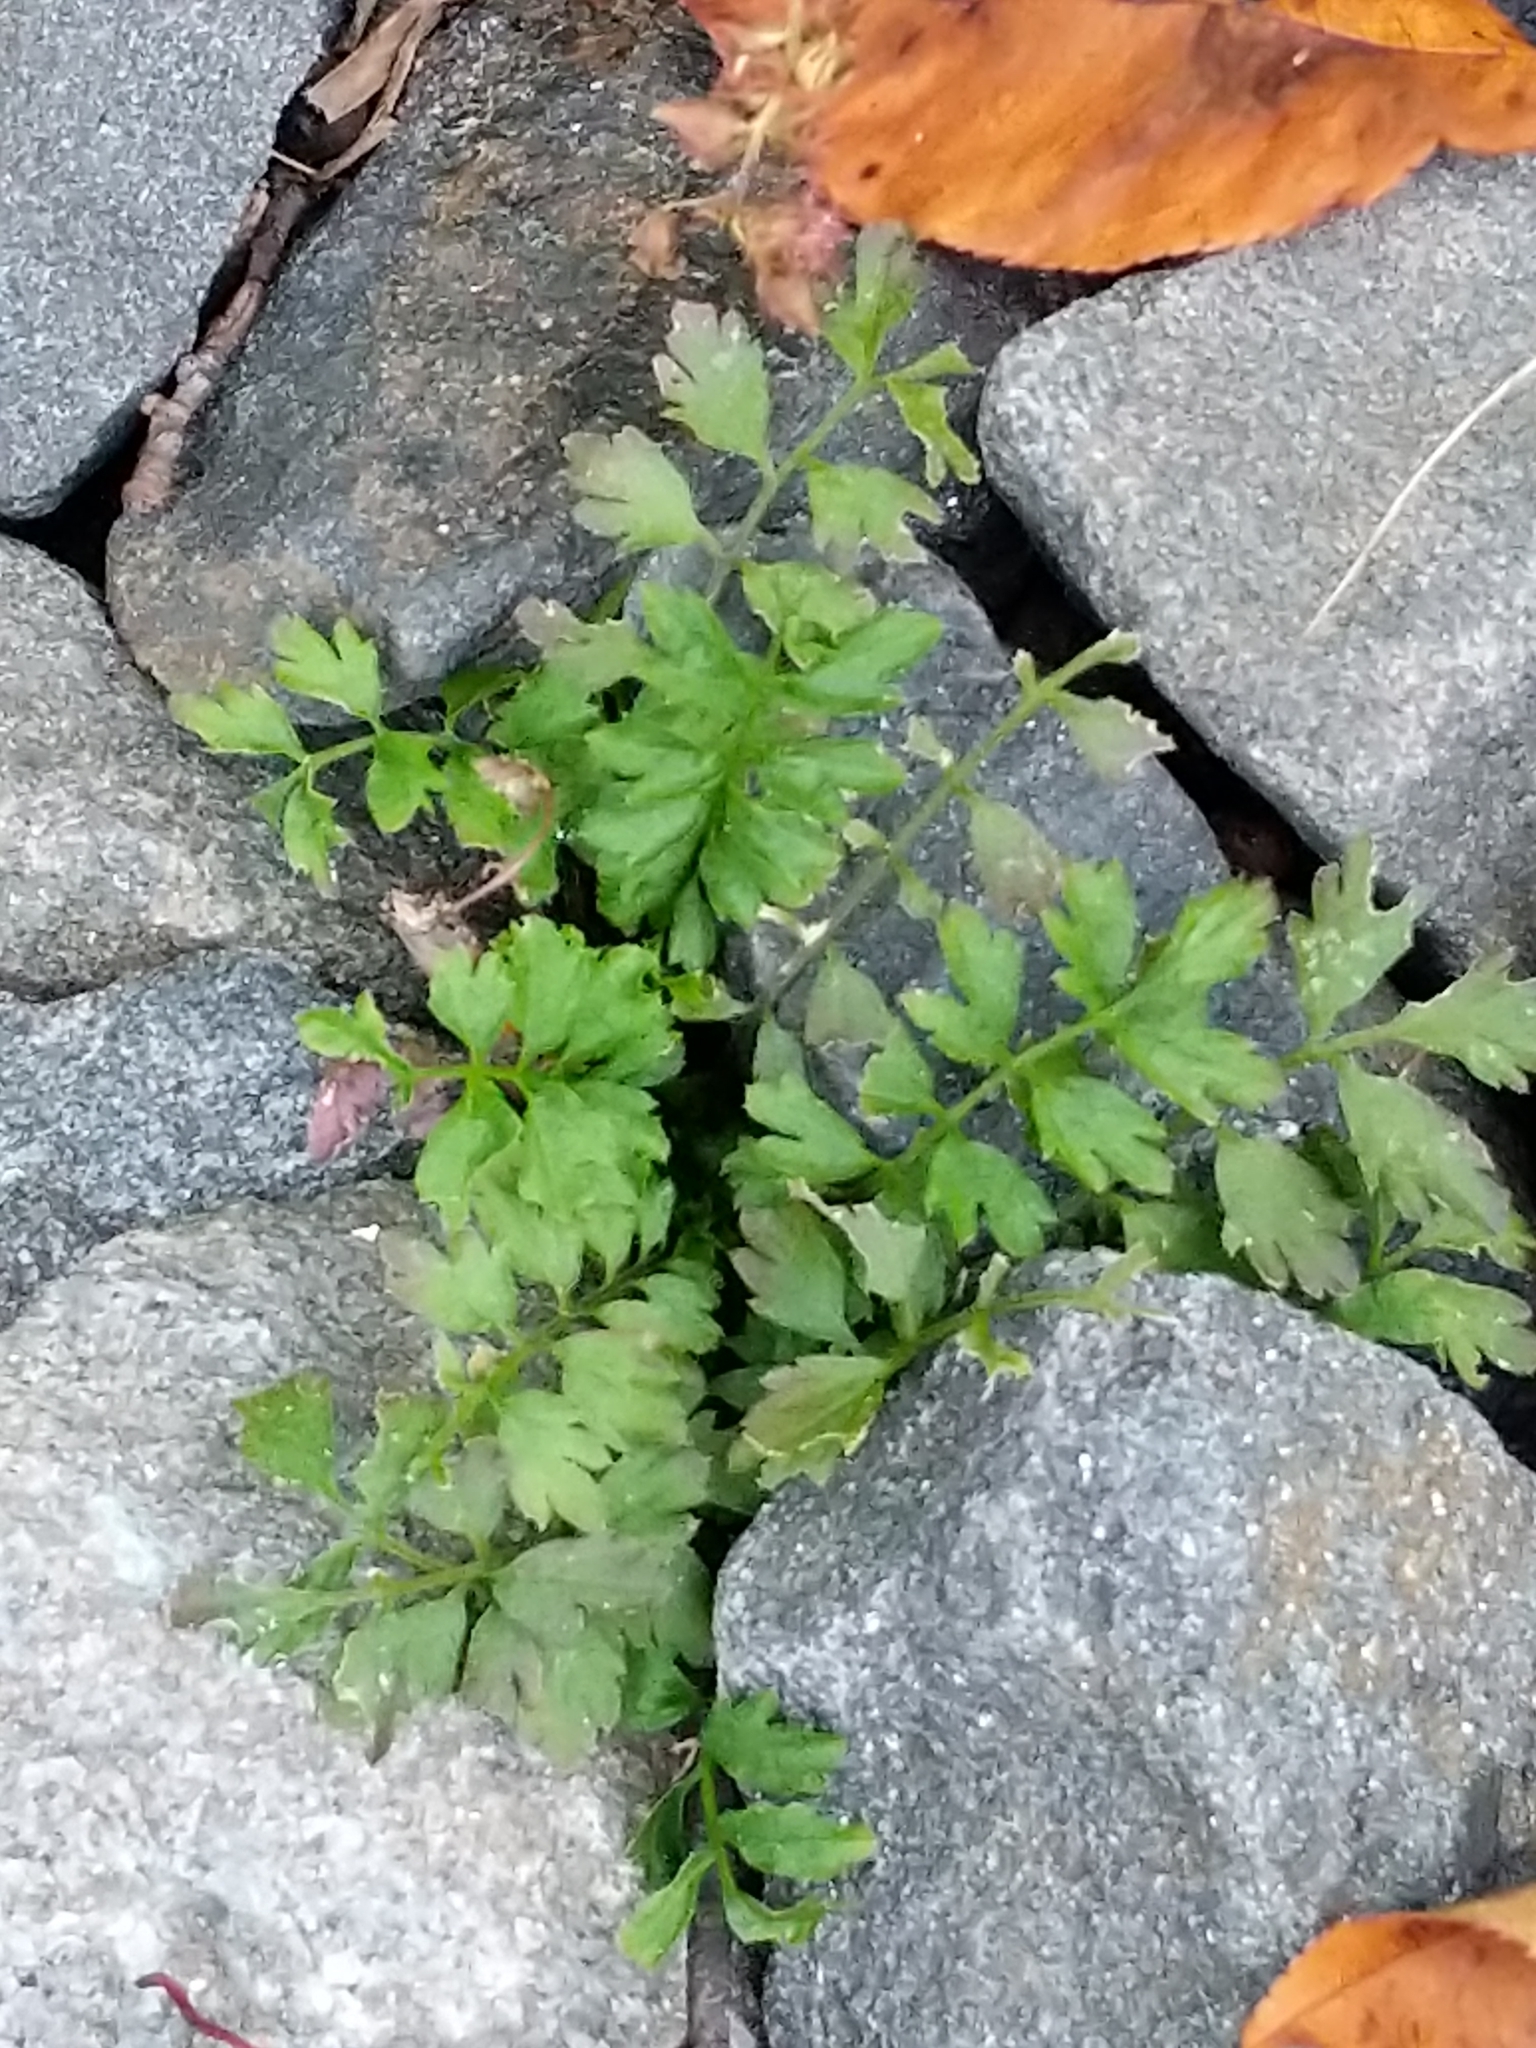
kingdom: Plantae
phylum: Tracheophyta
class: Magnoliopsida
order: Brassicales
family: Brassicaceae
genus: Cardamine
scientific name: Cardamine impatiens
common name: Narrow-leaved bitter-cress
